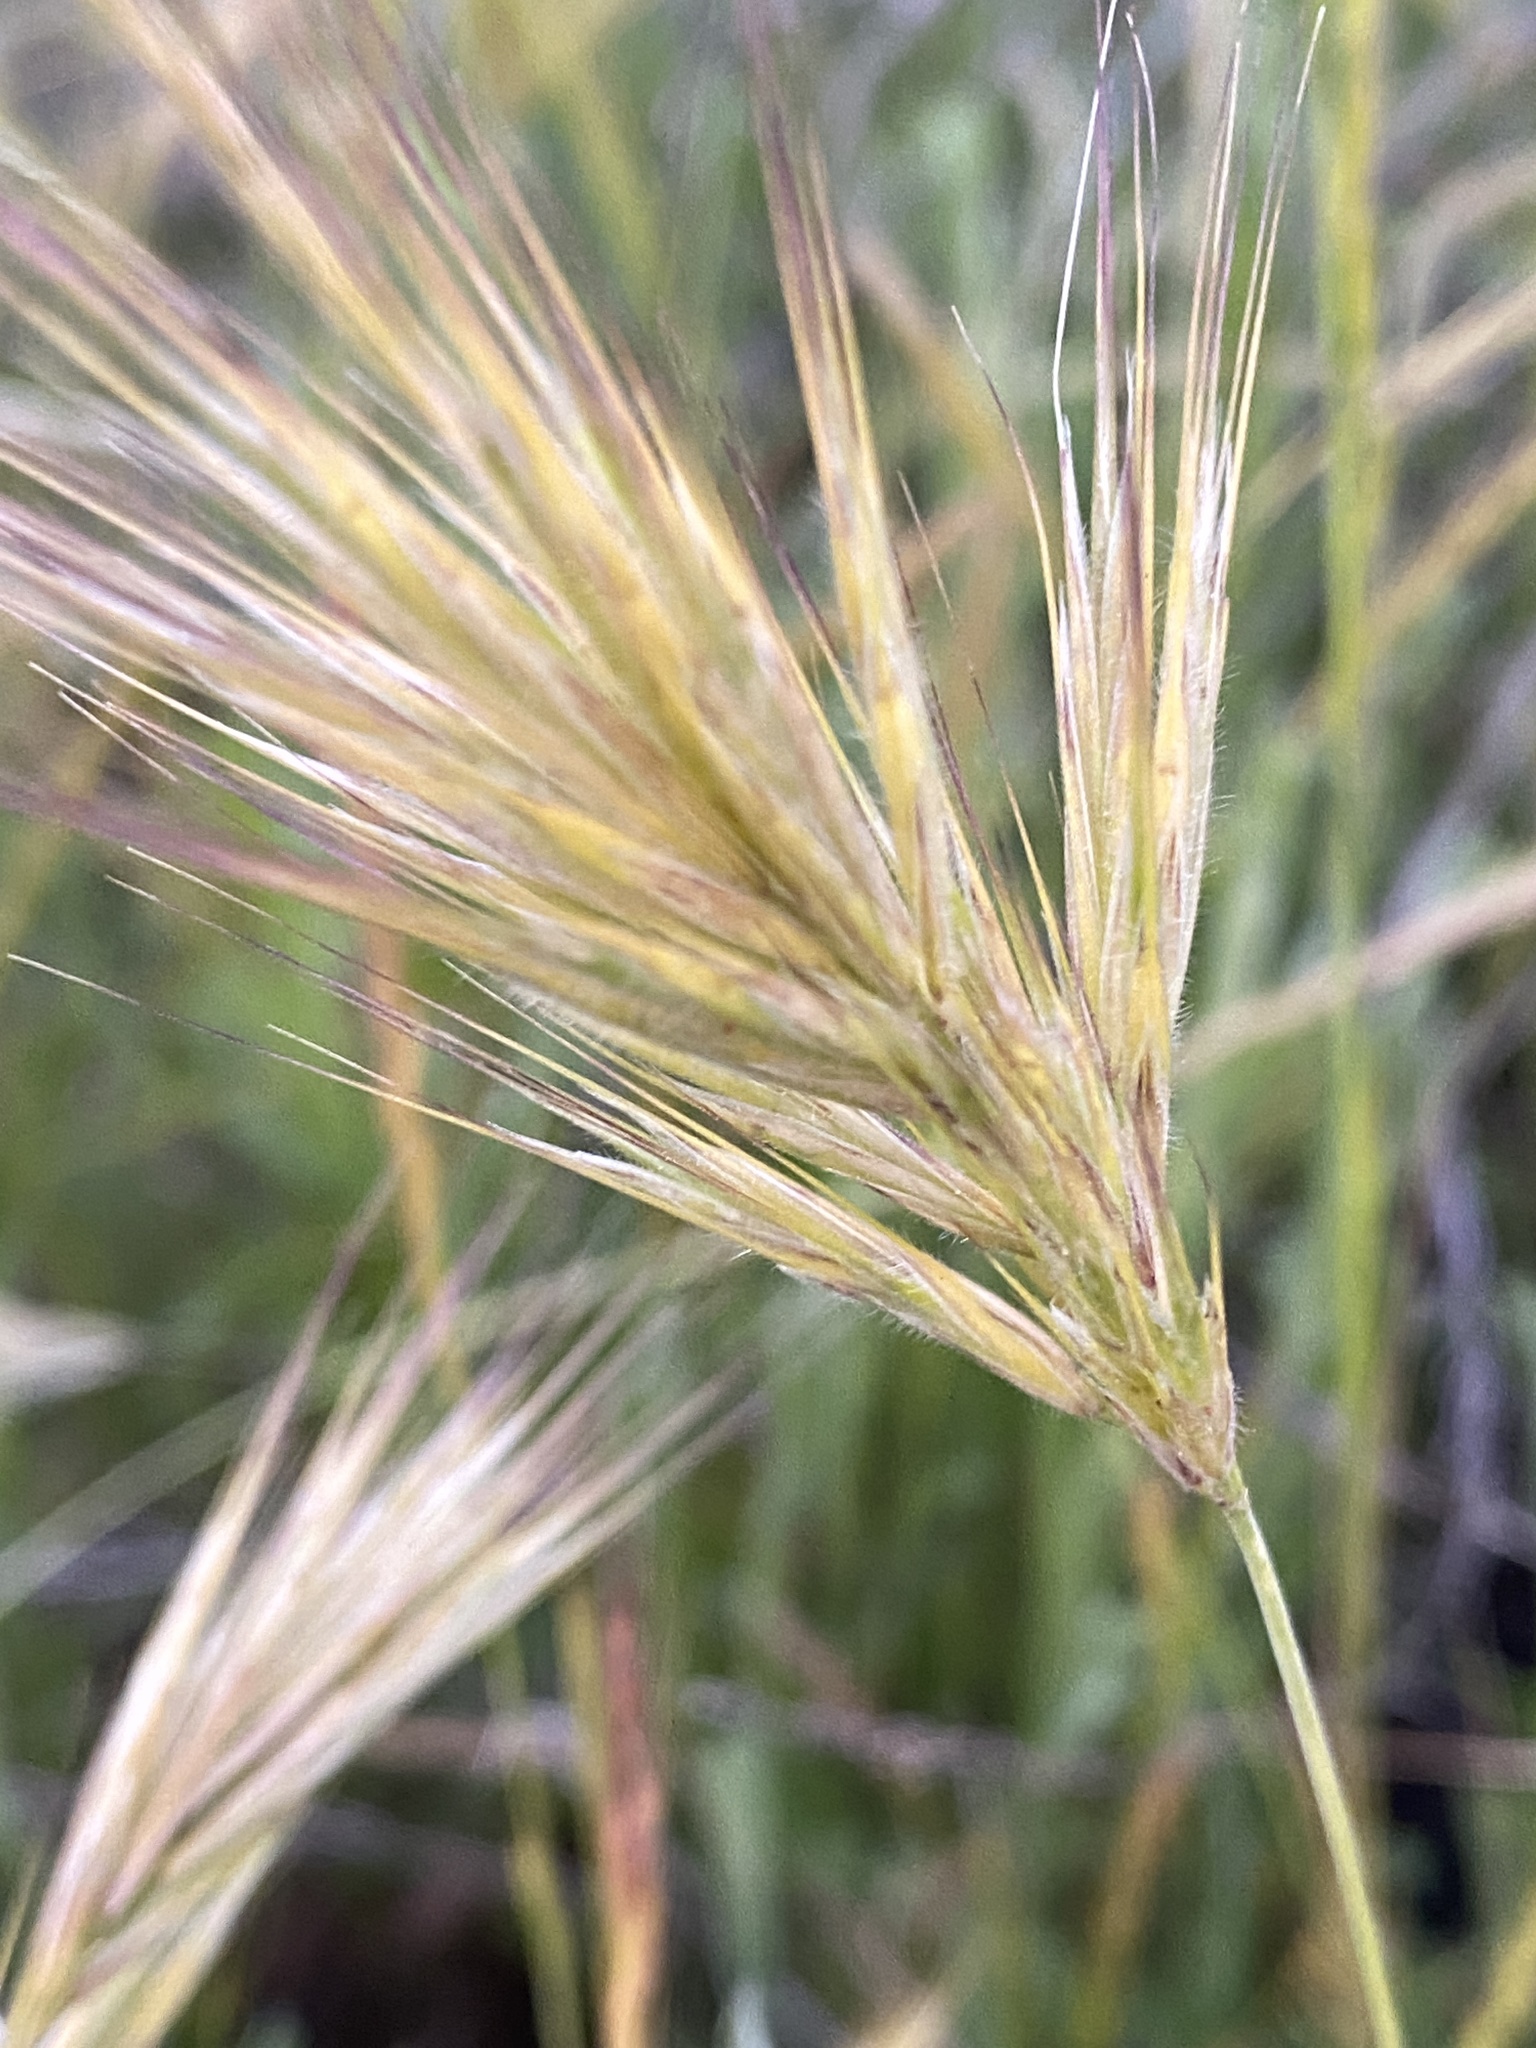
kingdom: Plantae
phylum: Tracheophyta
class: Liliopsida
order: Poales
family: Poaceae
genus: Bromus
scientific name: Bromus rubens
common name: Red brome
